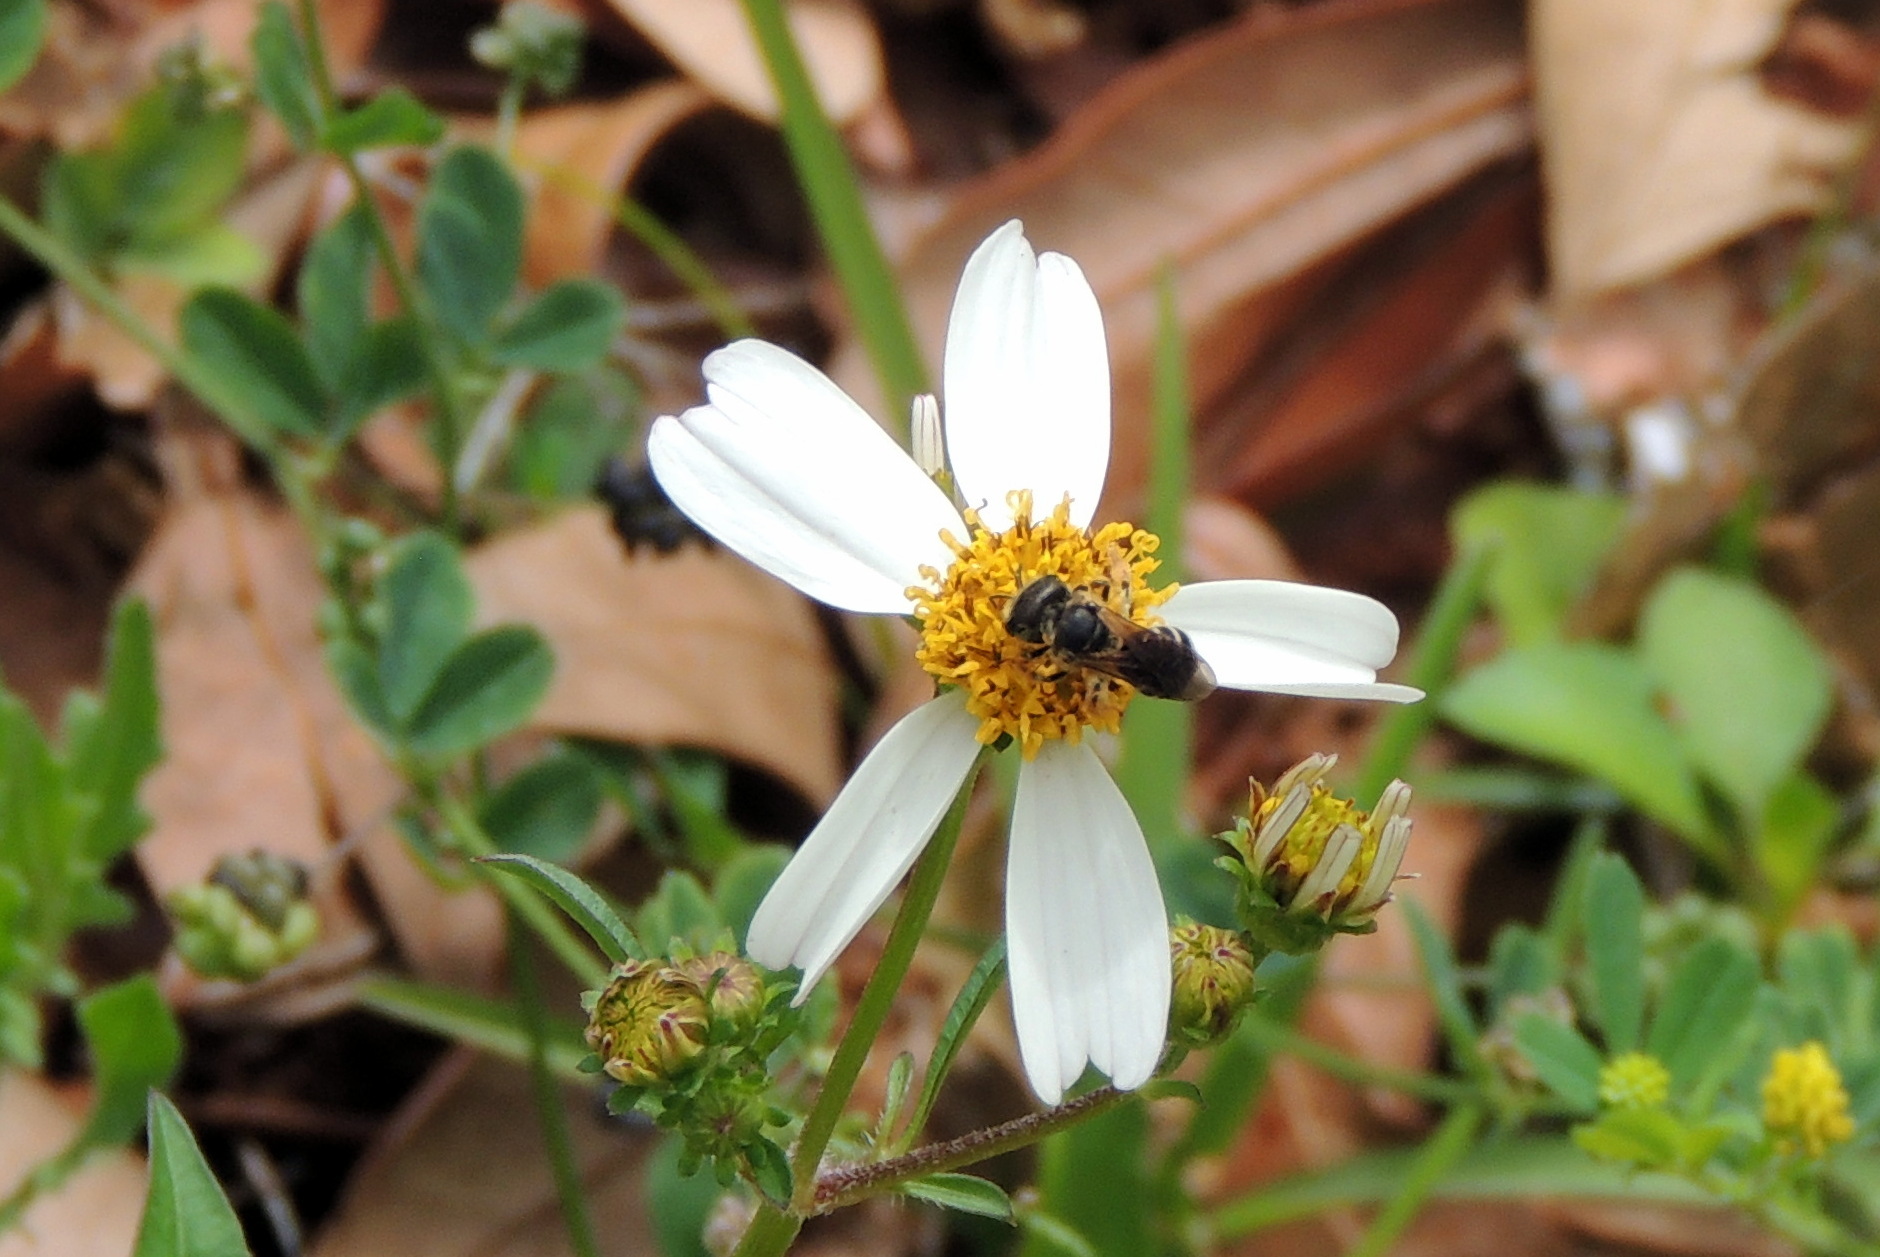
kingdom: Animalia
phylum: Arthropoda
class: Insecta
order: Hymenoptera
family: Halictidae
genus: Halictus
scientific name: Halictus poeyi
